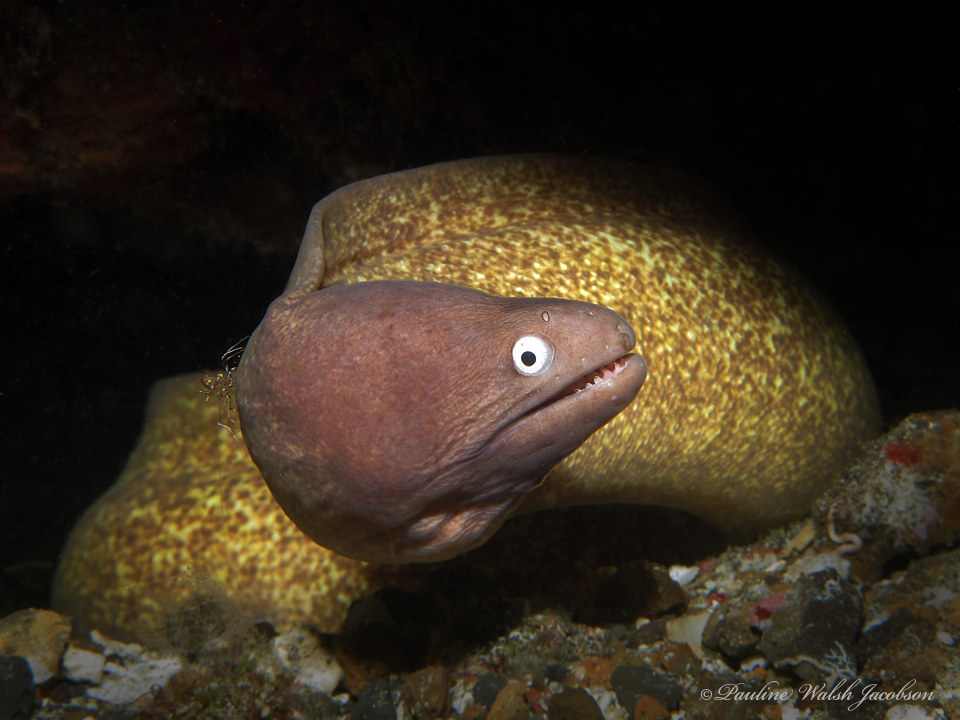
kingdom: Animalia
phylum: Chordata
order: Anguilliformes
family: Muraenidae
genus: Gymnothorax
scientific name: Gymnothorax thyrsoideus
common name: Greyface moray
